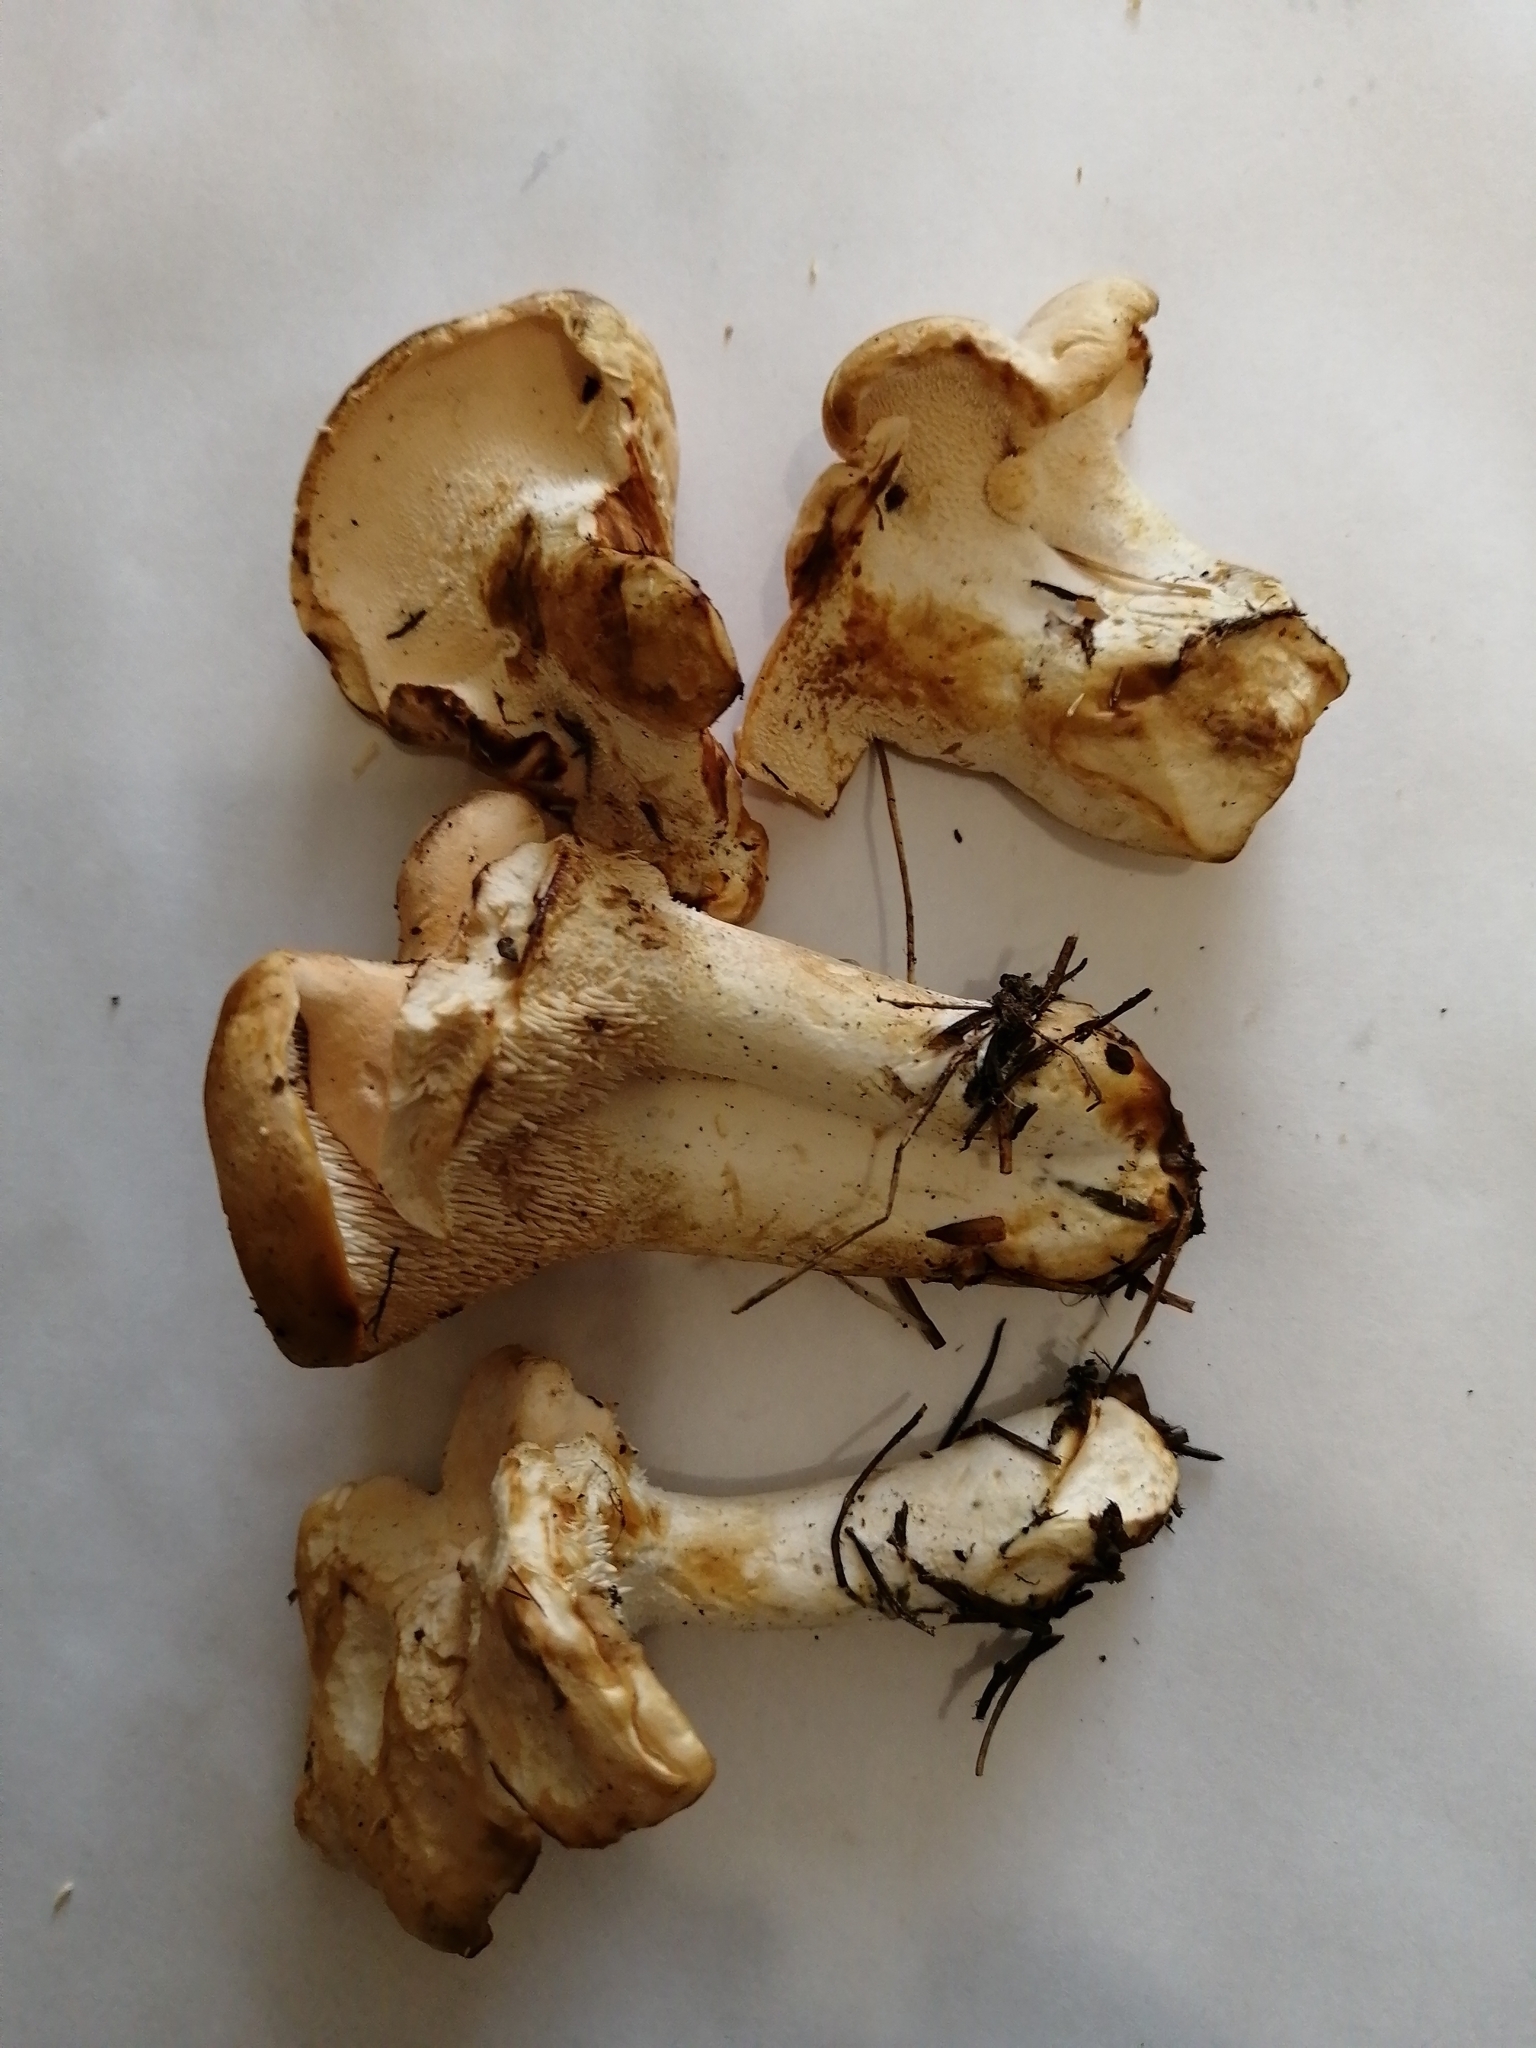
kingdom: Fungi
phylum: Basidiomycota
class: Agaricomycetes
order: Cantharellales
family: Hydnaceae
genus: Hydnum
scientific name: Hydnum repandum
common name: Wood hedgehog
